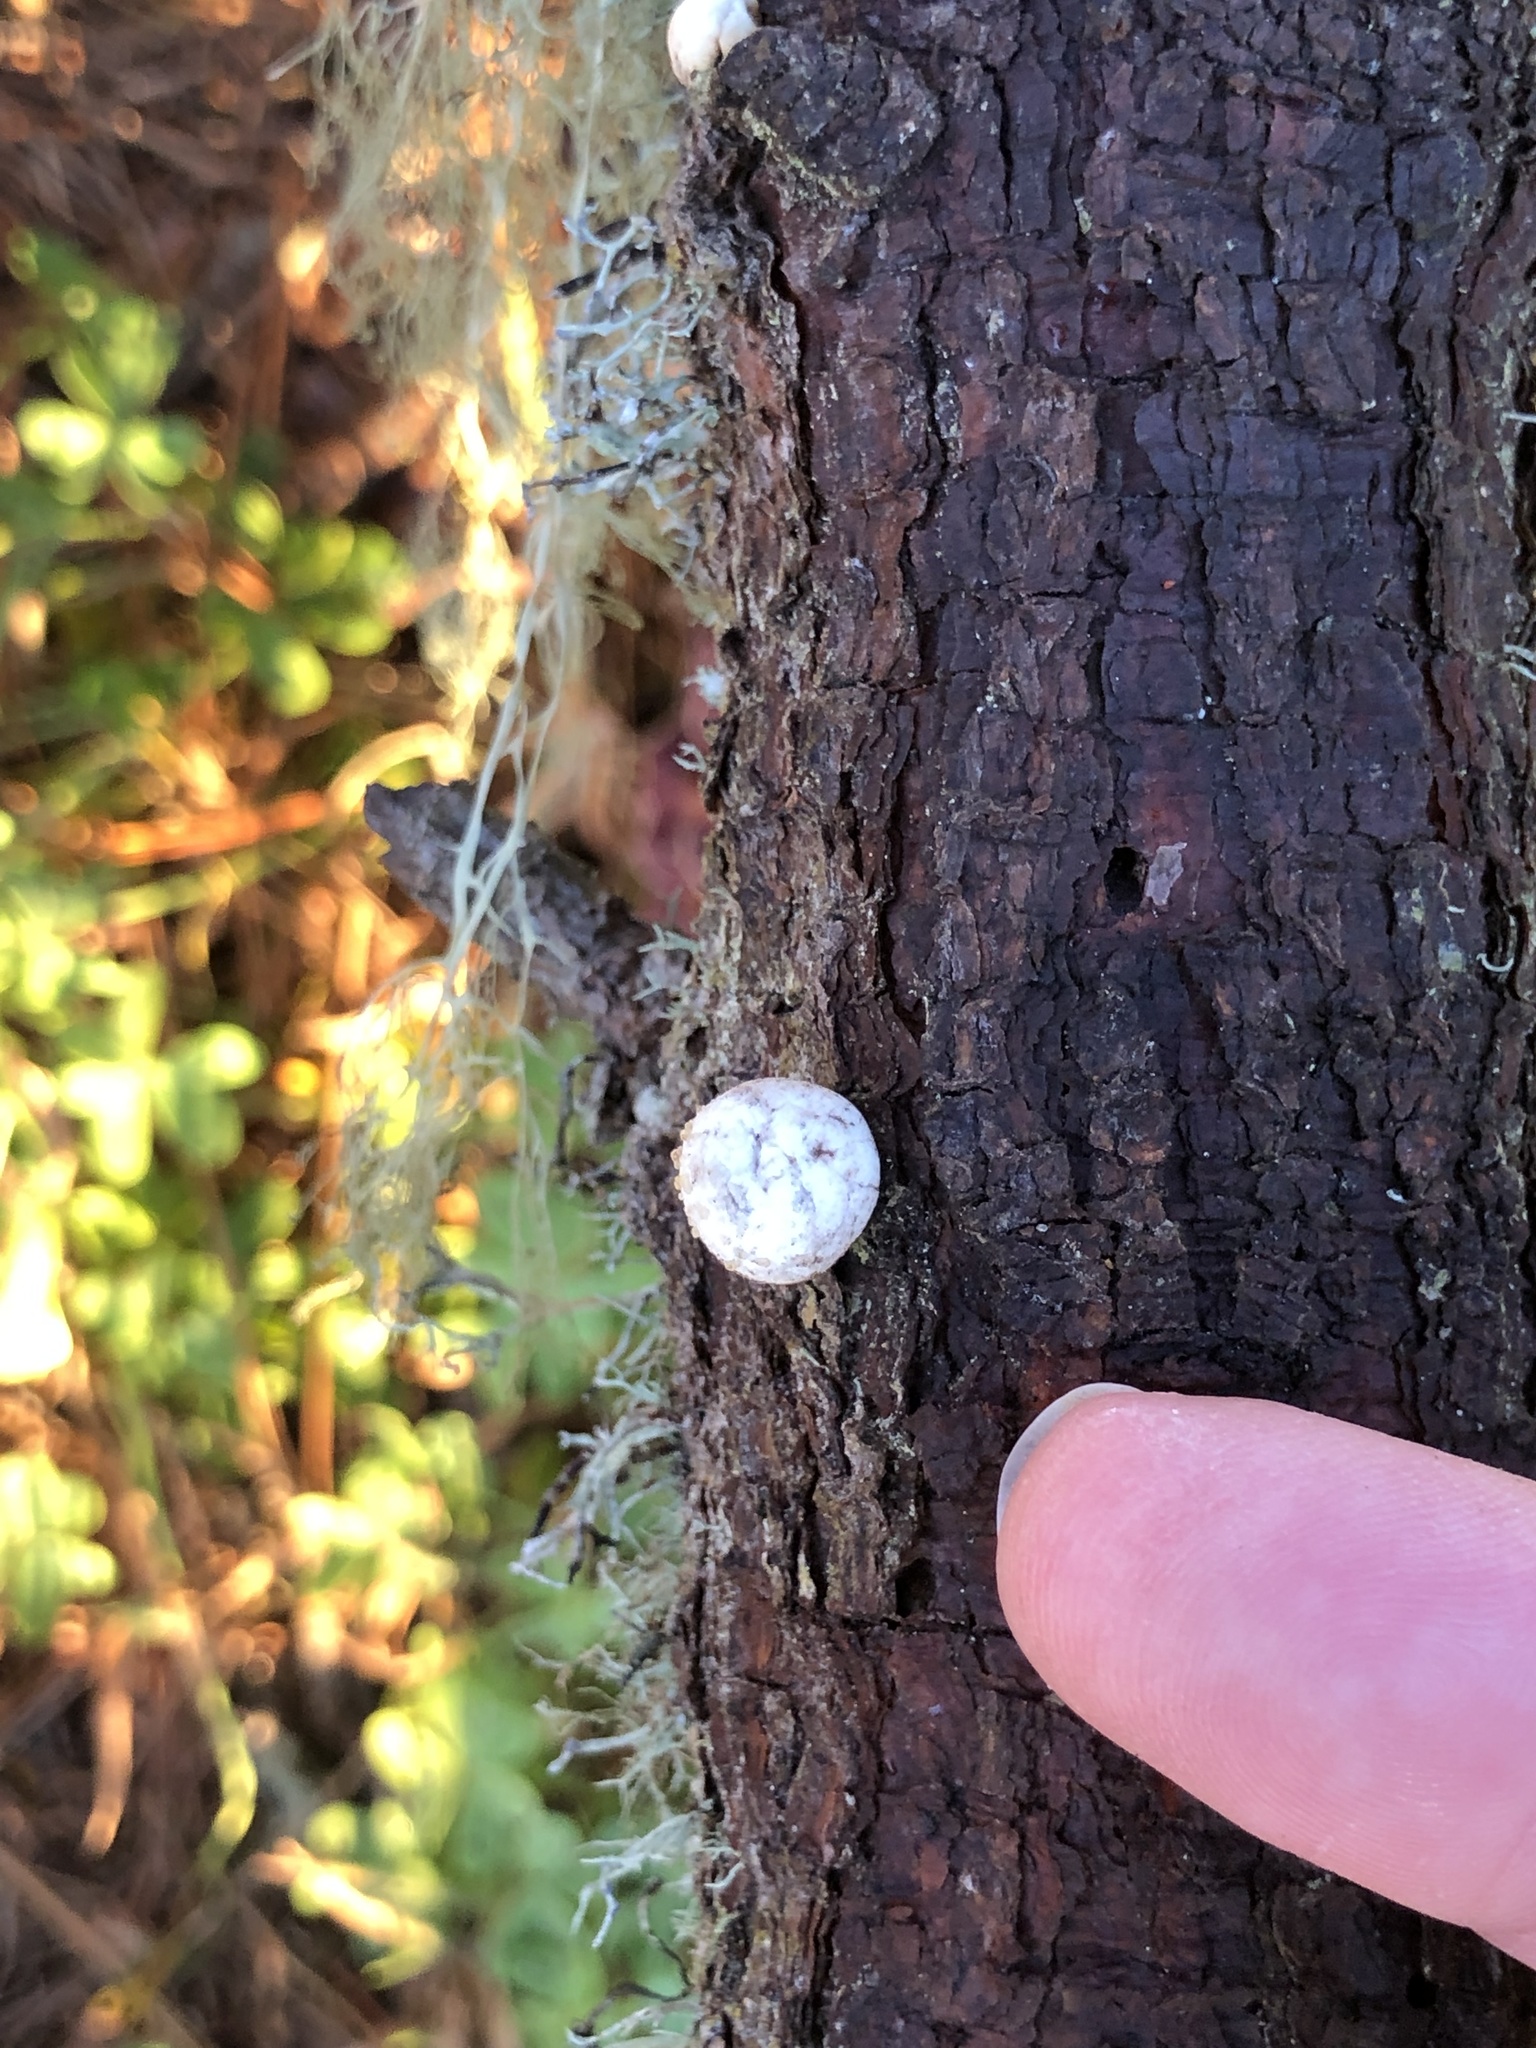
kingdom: Fungi
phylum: Basidiomycota
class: Agaricomycetes
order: Polyporales
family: Polyporaceae
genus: Cryptoporus
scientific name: Cryptoporus volvatus
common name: Veiled polypore
